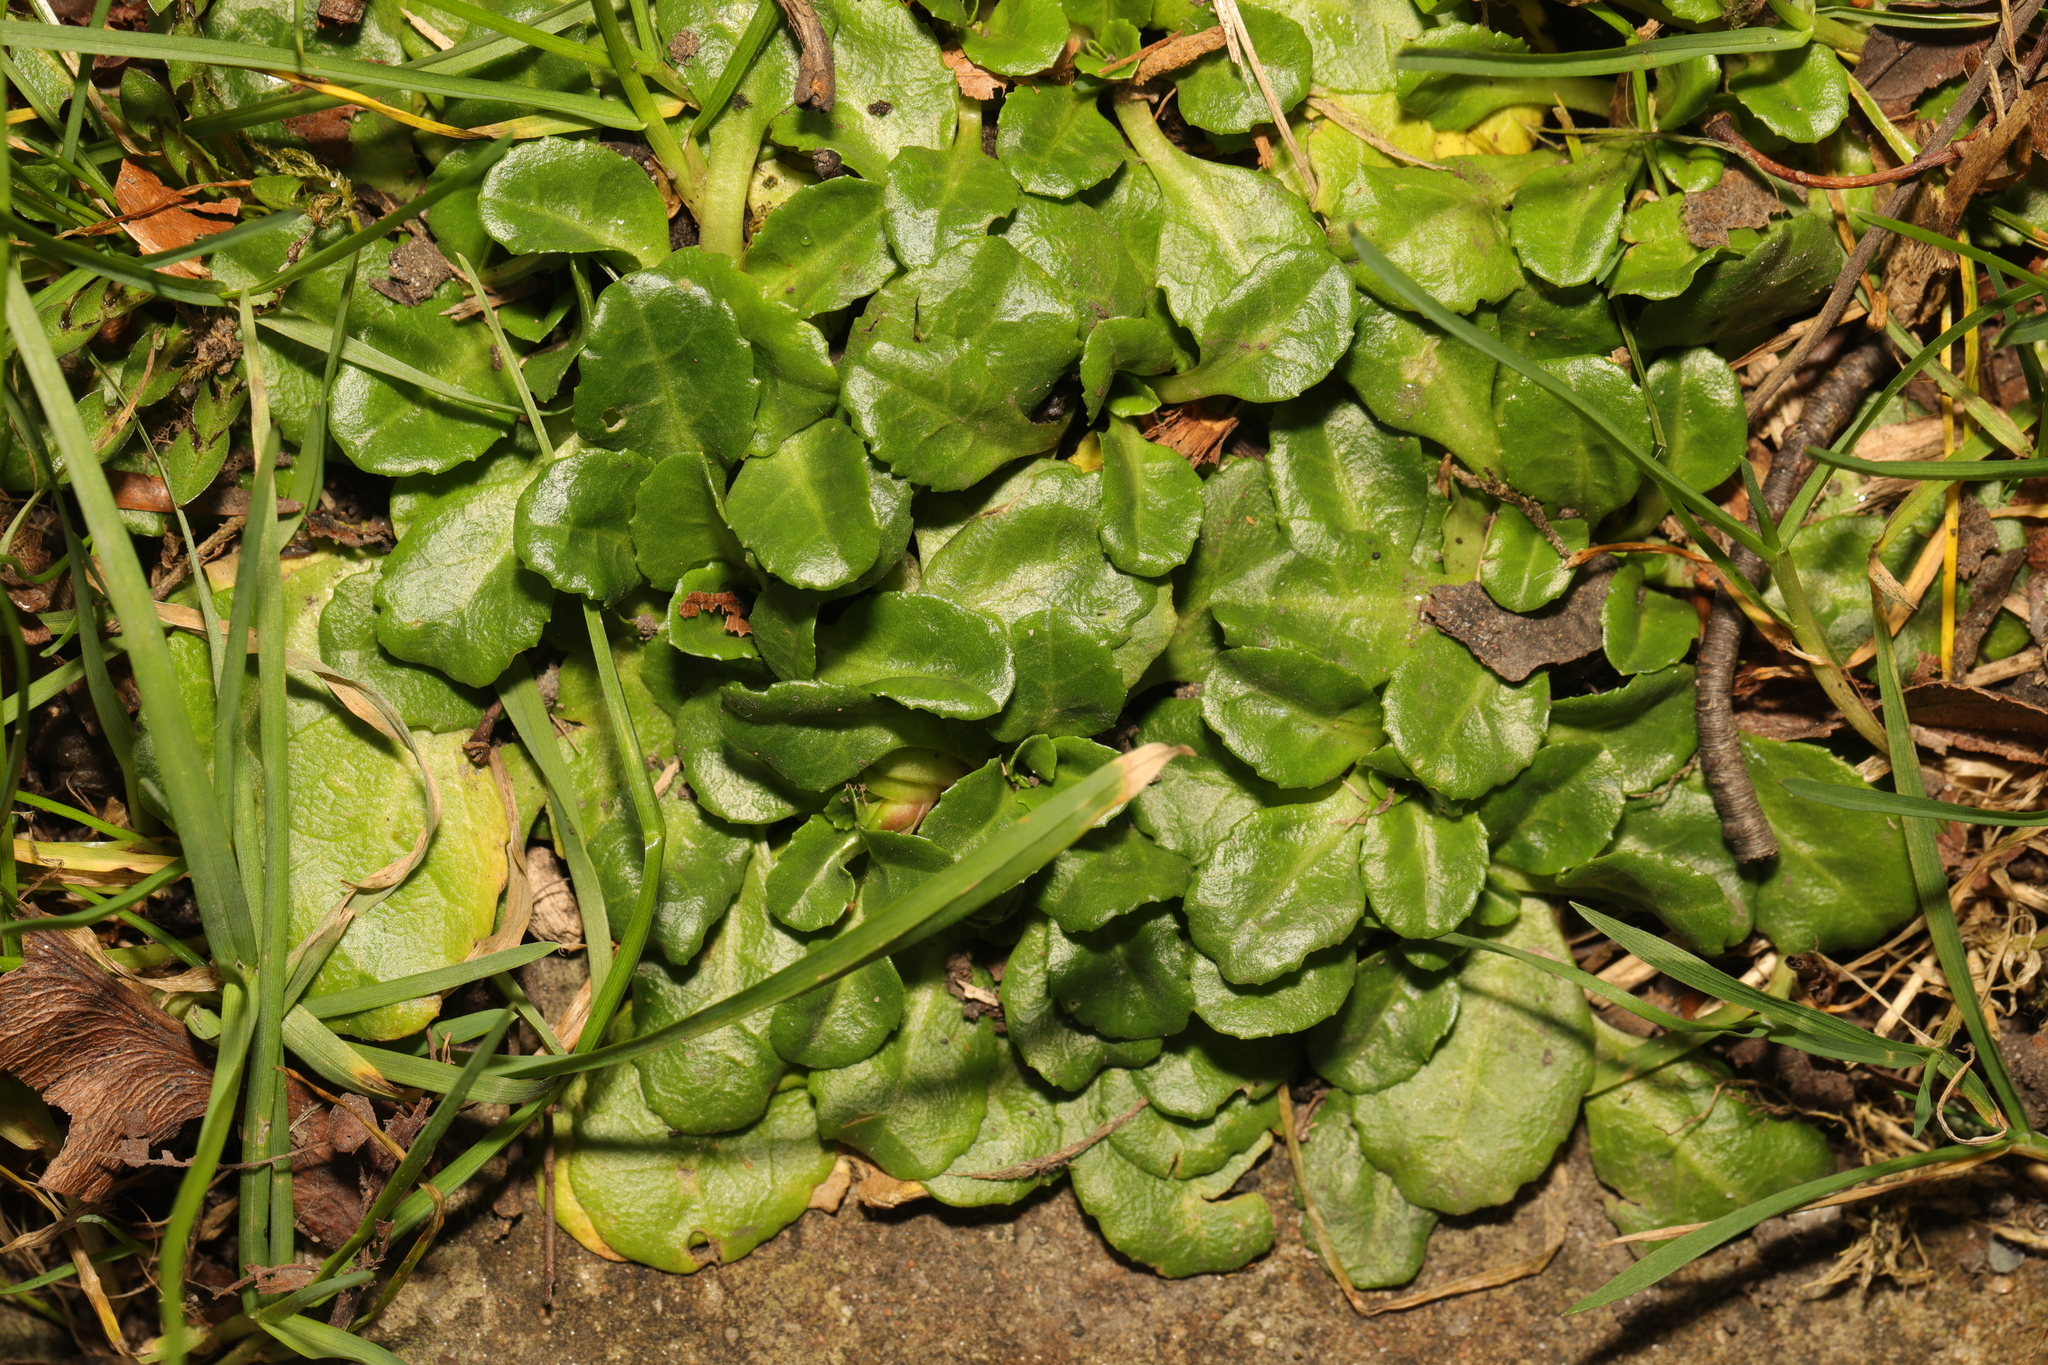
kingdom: Plantae
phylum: Tracheophyta
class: Magnoliopsida
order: Asterales
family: Asteraceae
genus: Bellis
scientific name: Bellis perennis
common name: Lawndaisy
